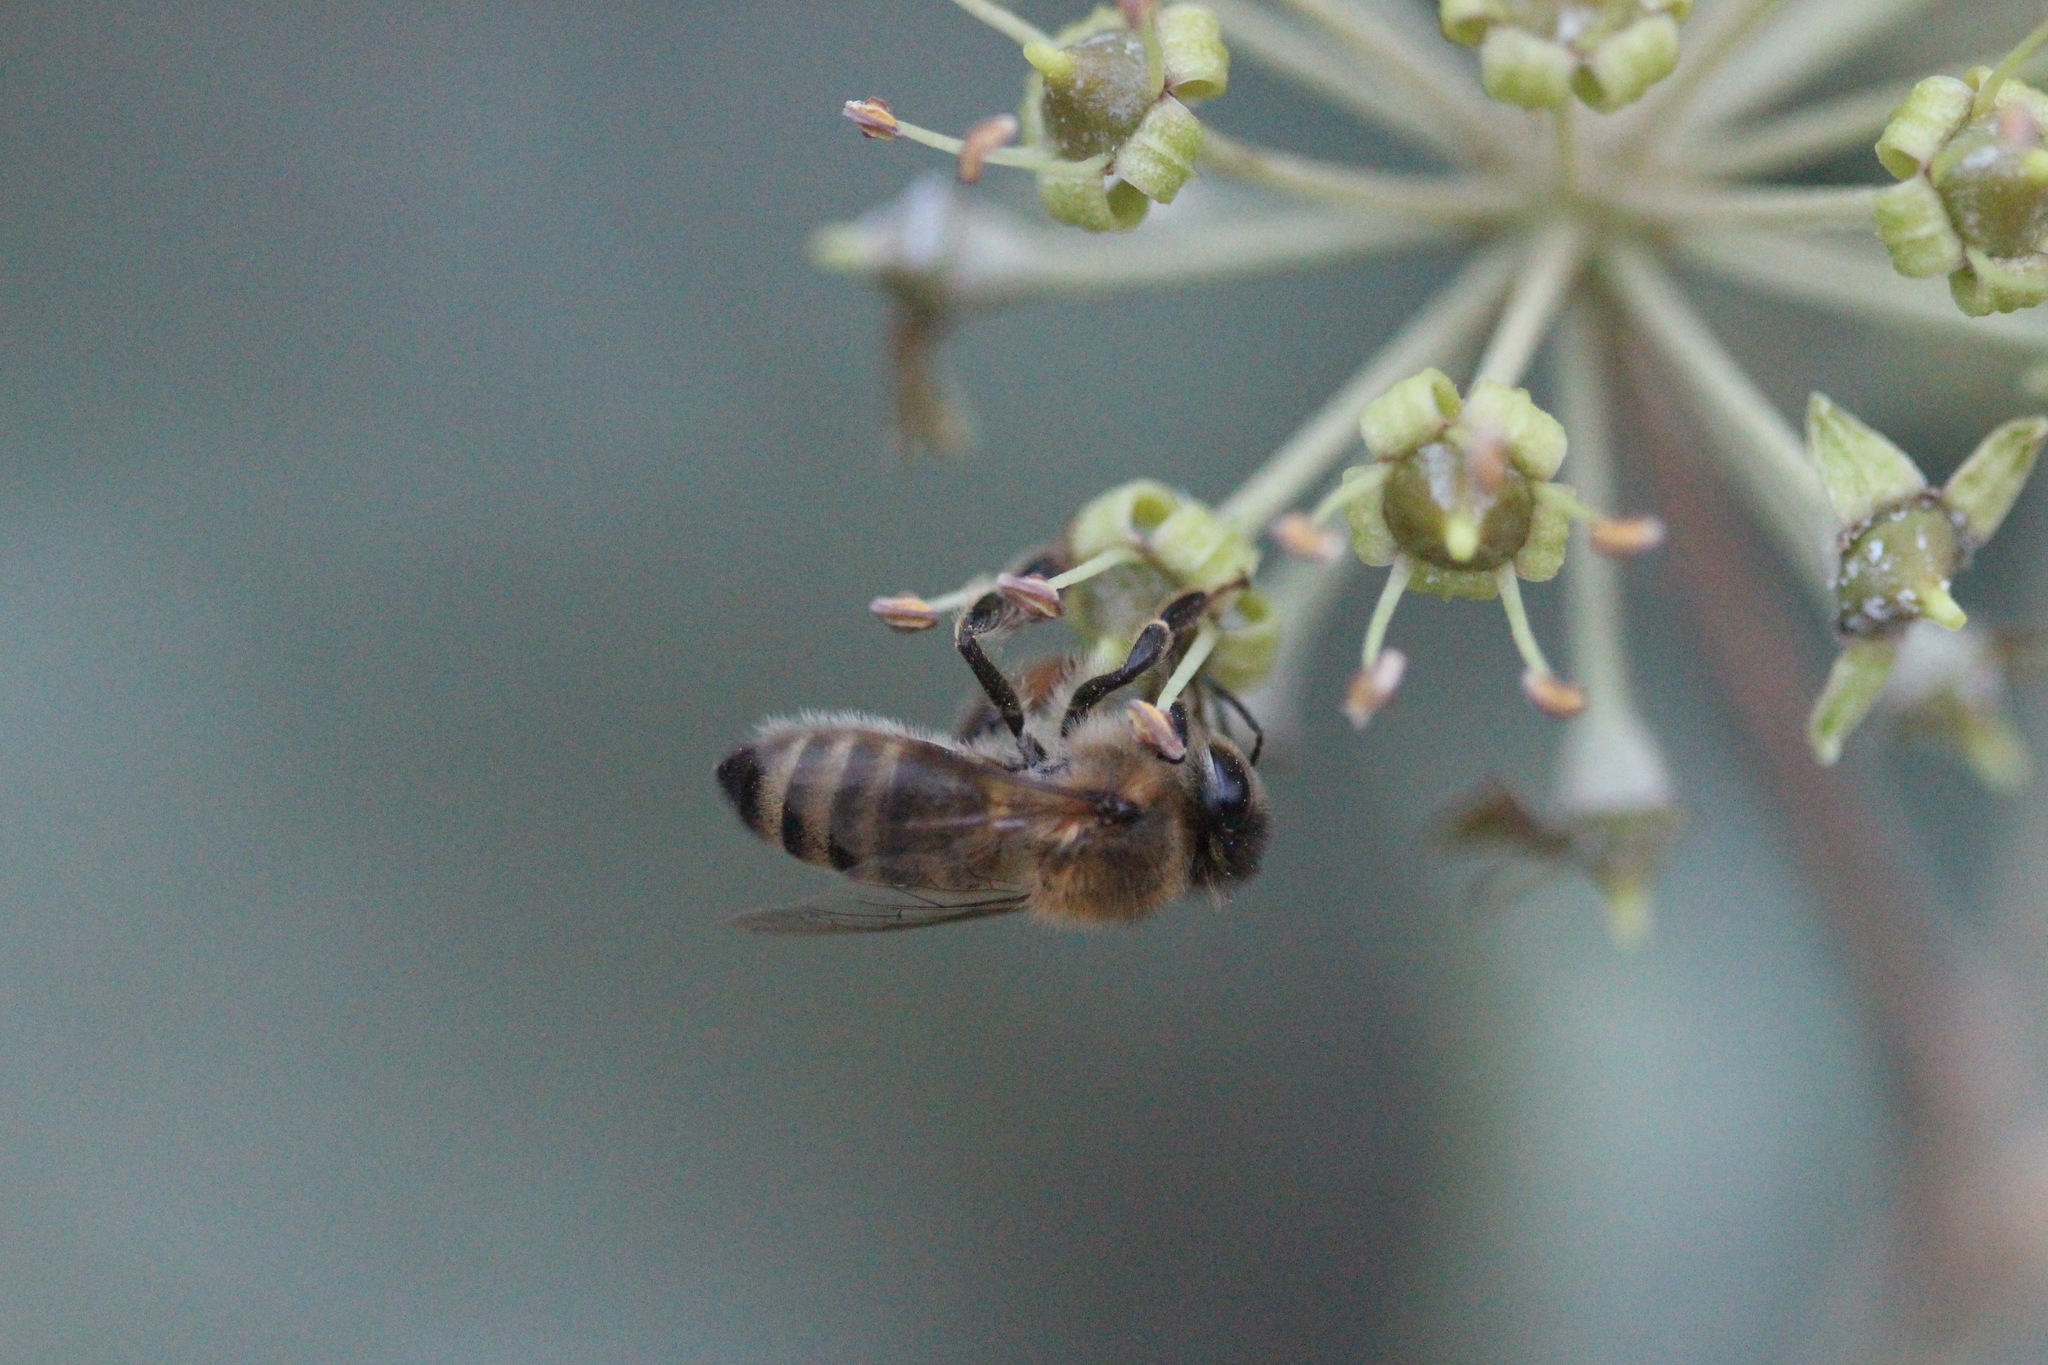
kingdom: Animalia
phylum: Arthropoda
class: Insecta
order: Hymenoptera
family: Apidae
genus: Apis
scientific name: Apis mellifera
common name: Honey bee
